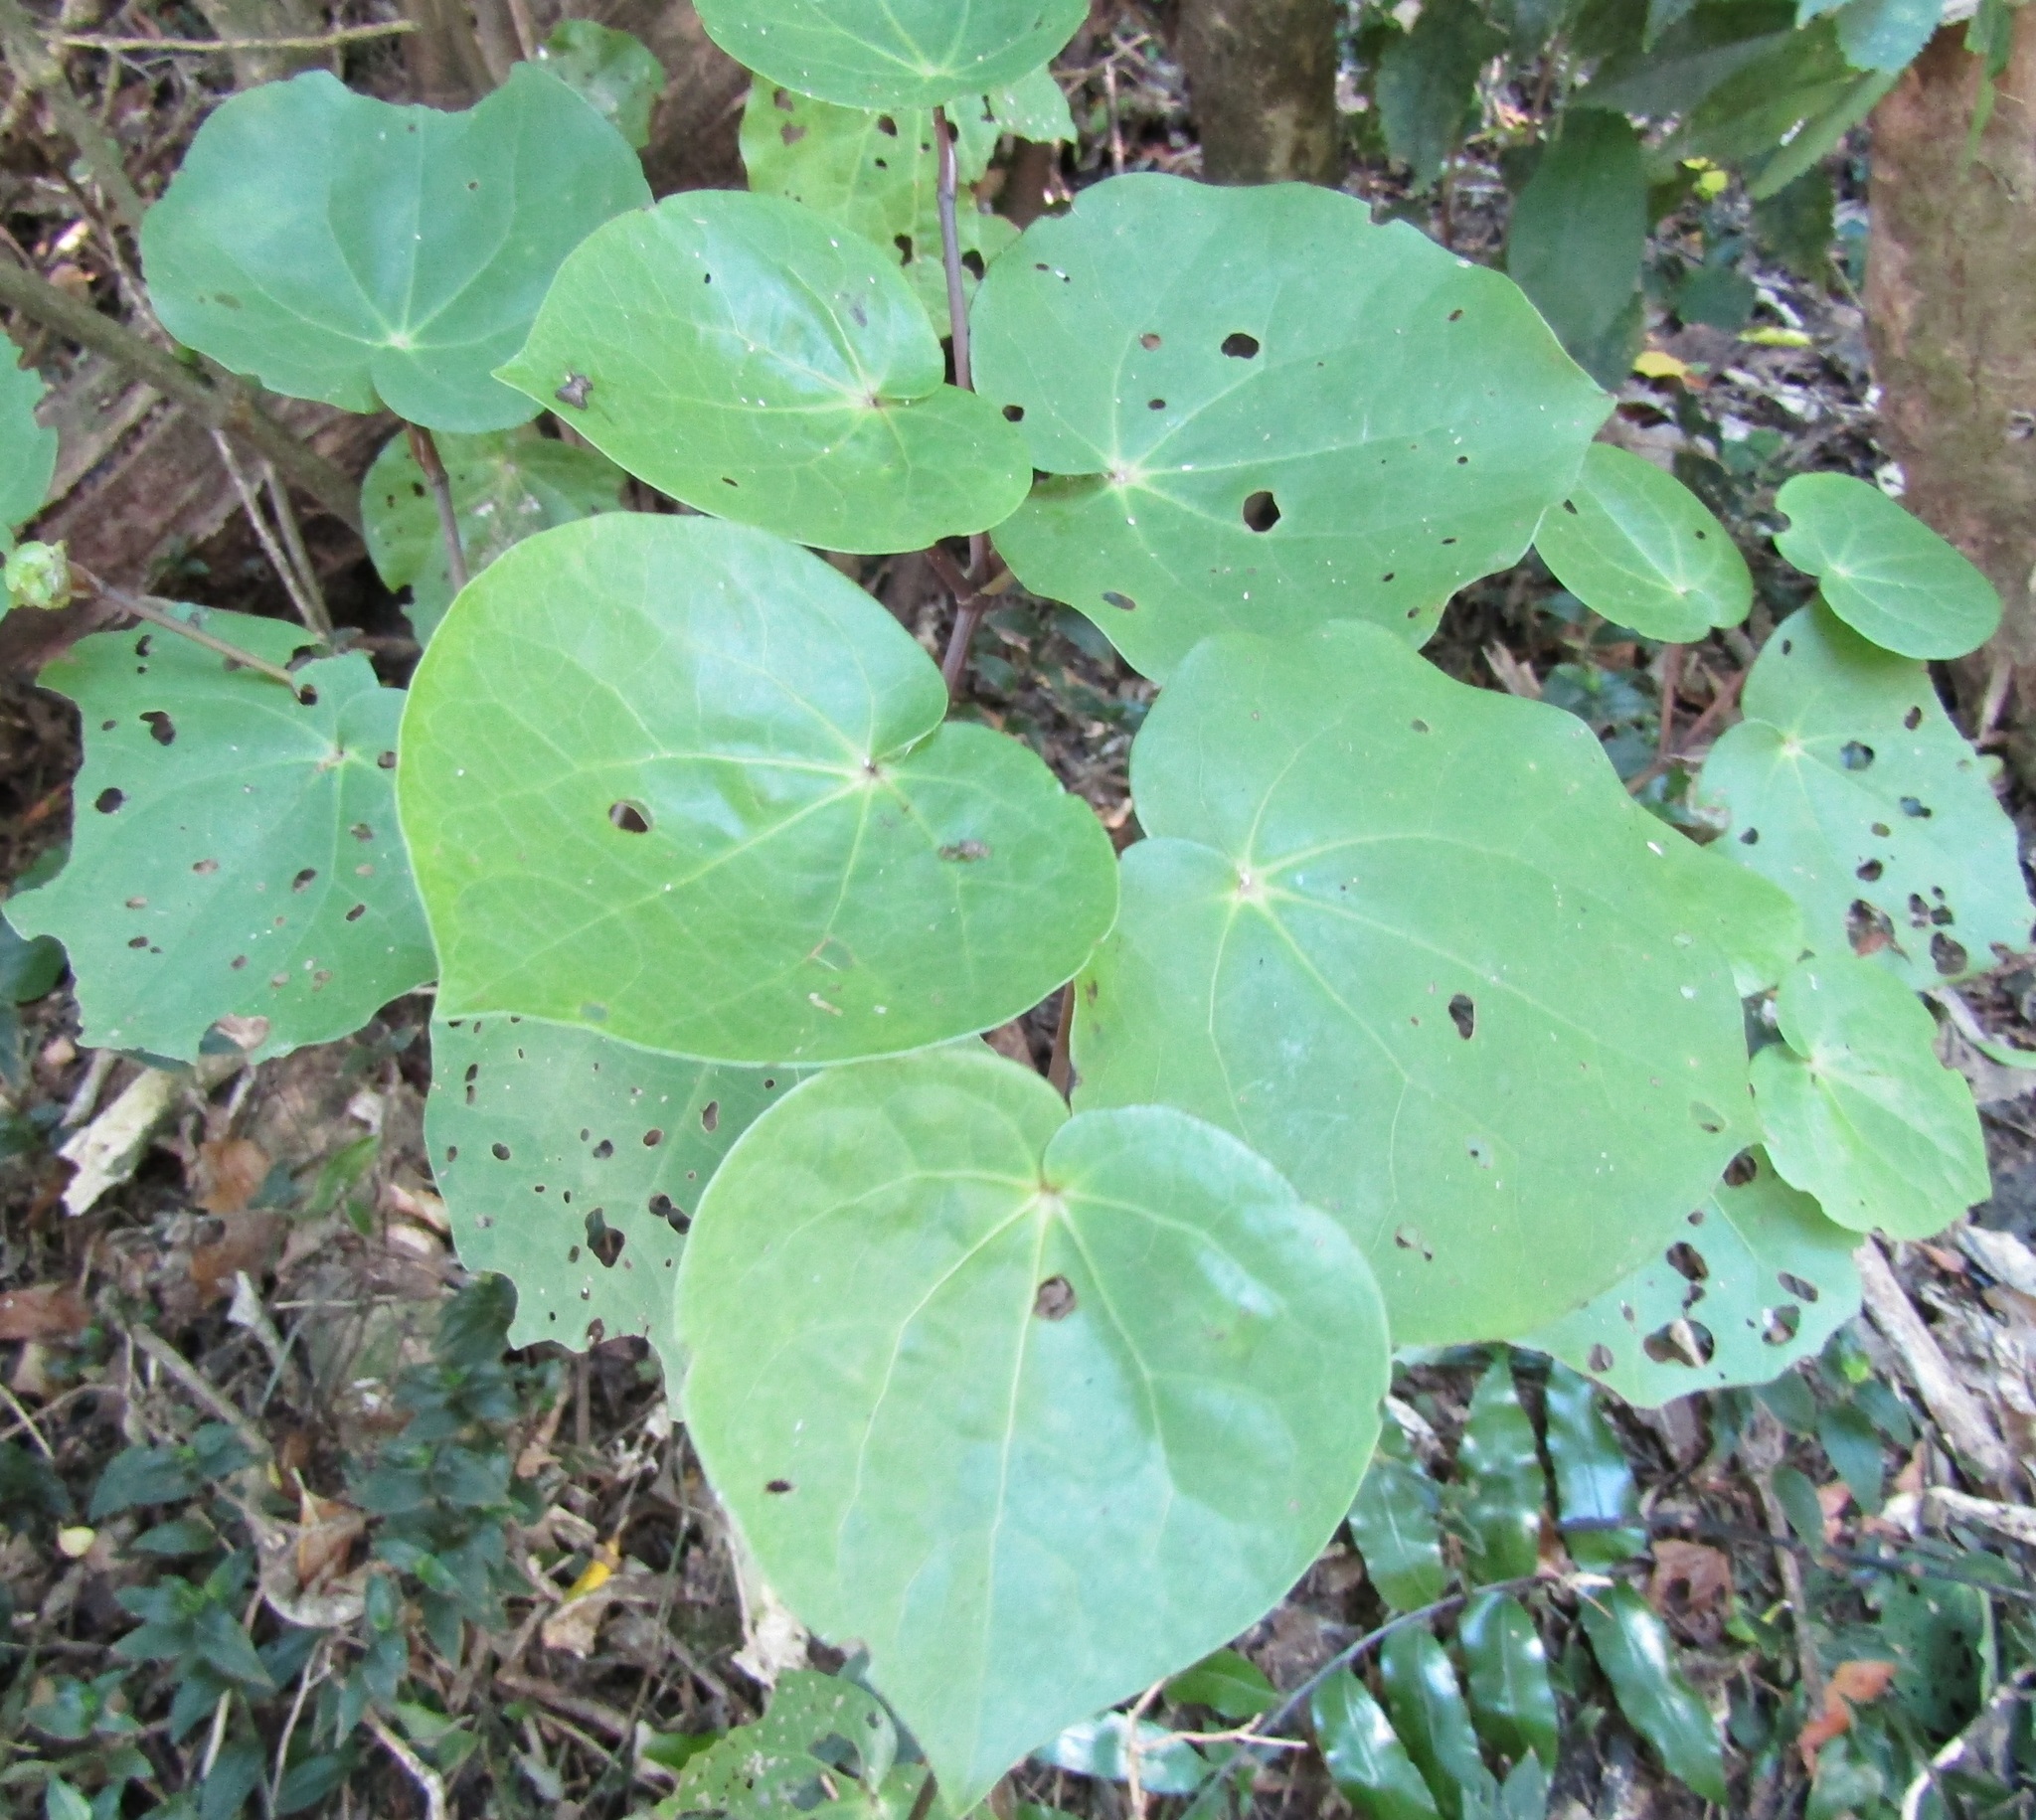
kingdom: Plantae
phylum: Tracheophyta
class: Magnoliopsida
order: Piperales
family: Piperaceae
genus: Macropiper
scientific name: Macropiper excelsum
